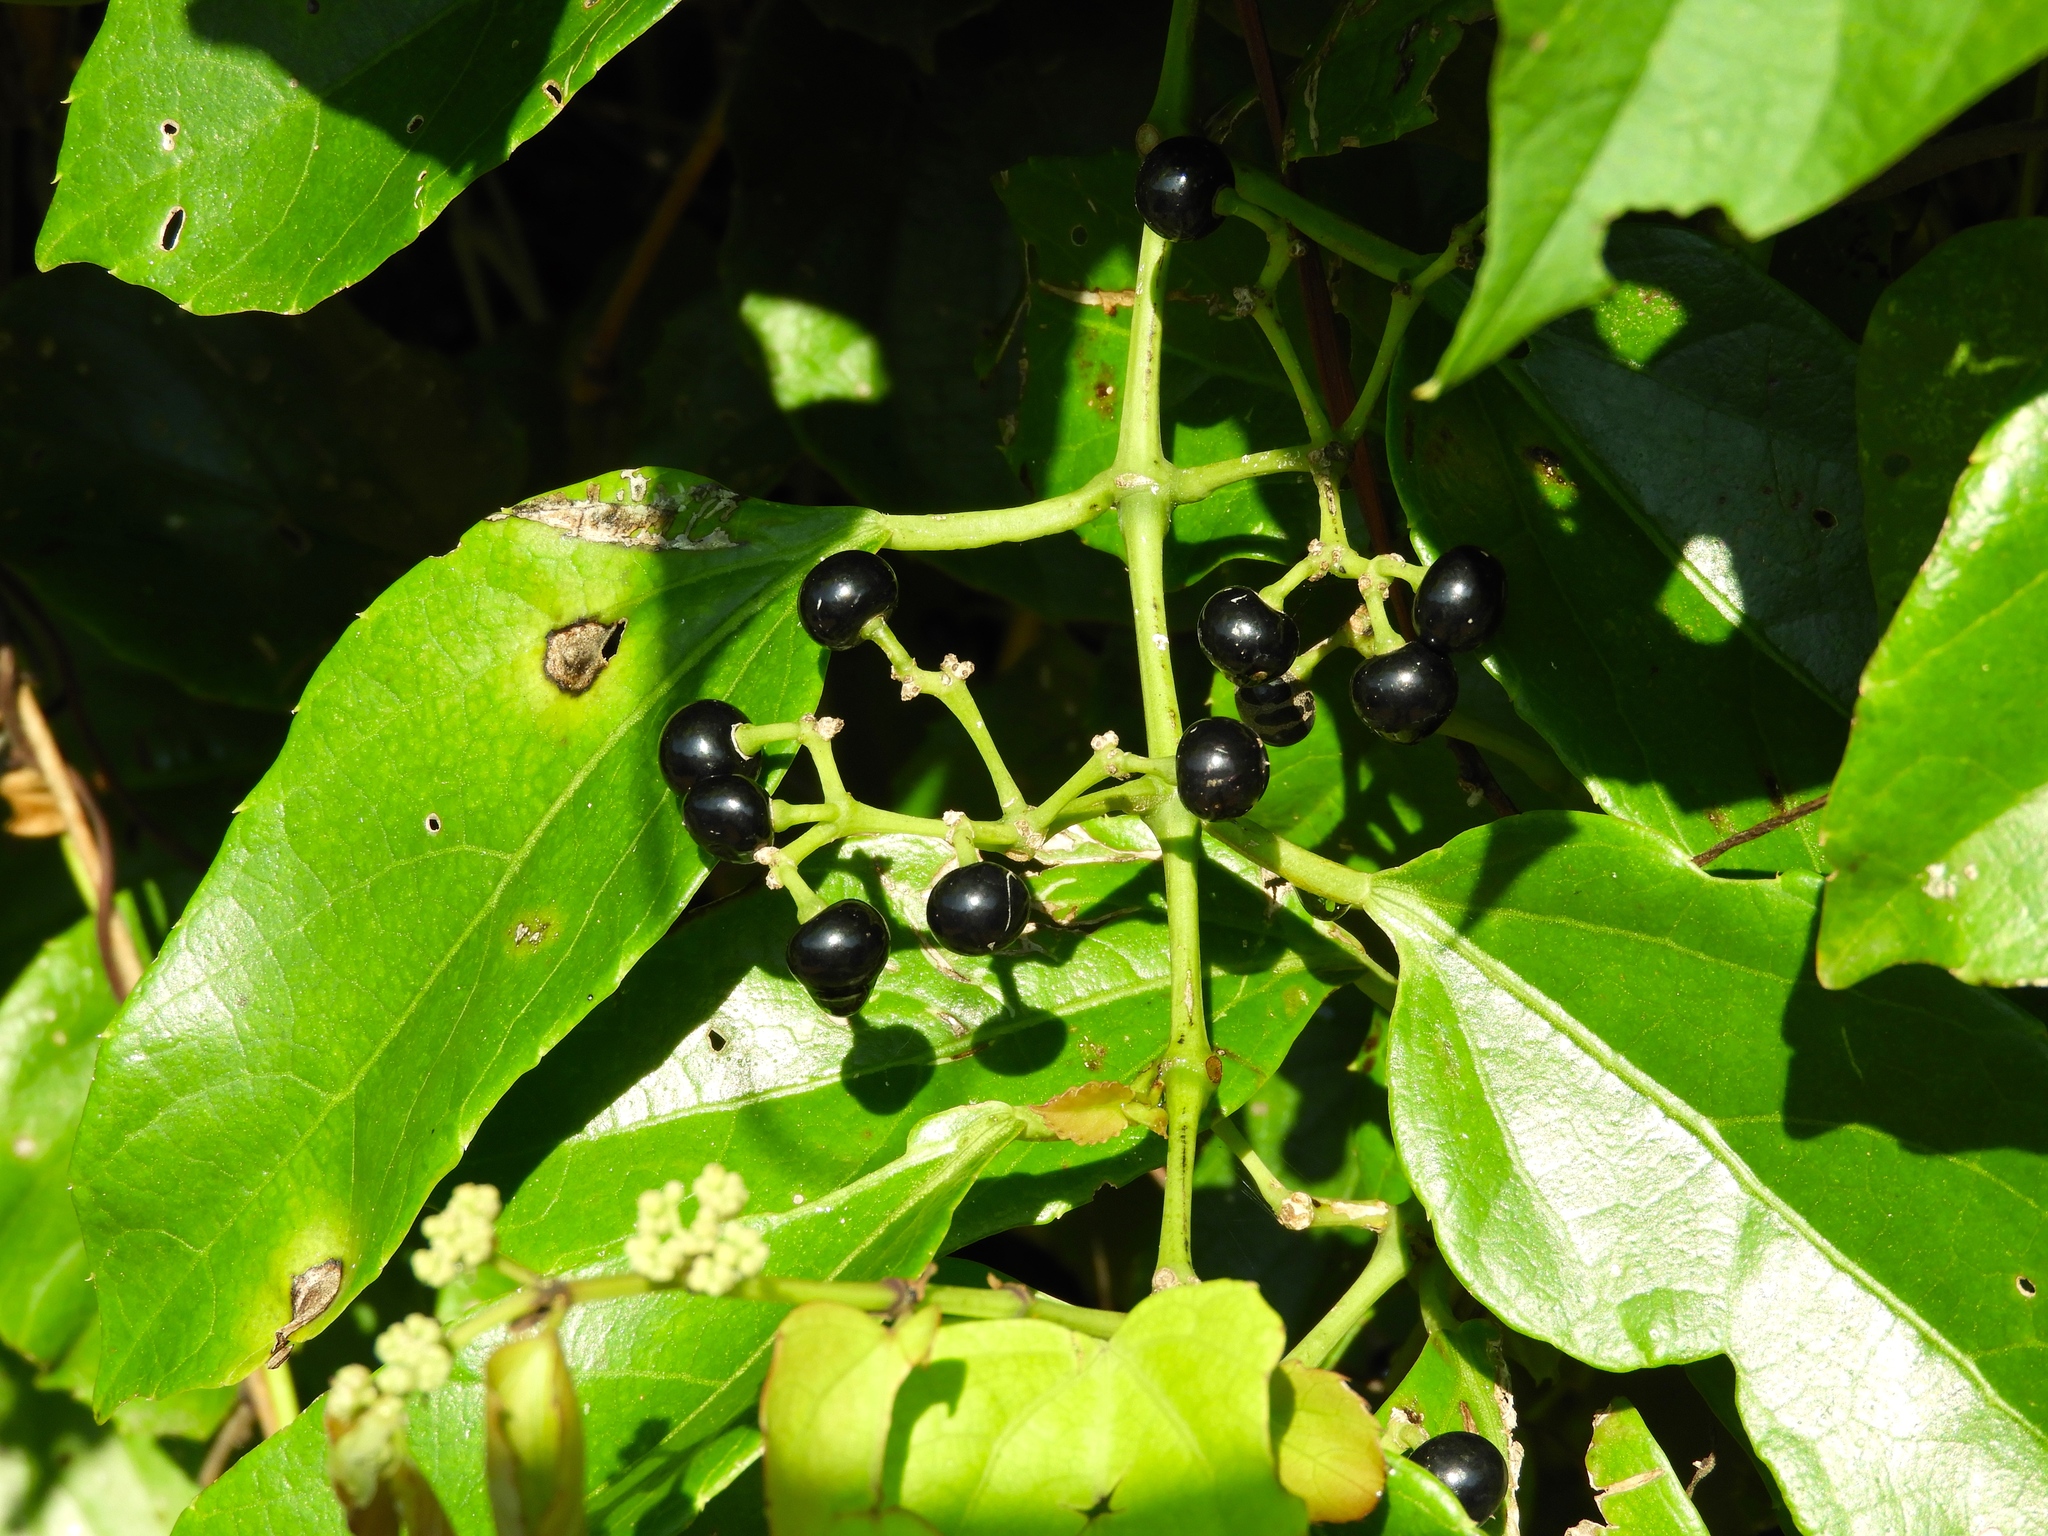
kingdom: Plantae
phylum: Tracheophyta
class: Magnoliopsida
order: Vitales
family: Vitaceae
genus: Cissus
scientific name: Cissus verticillata
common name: Princess vine
